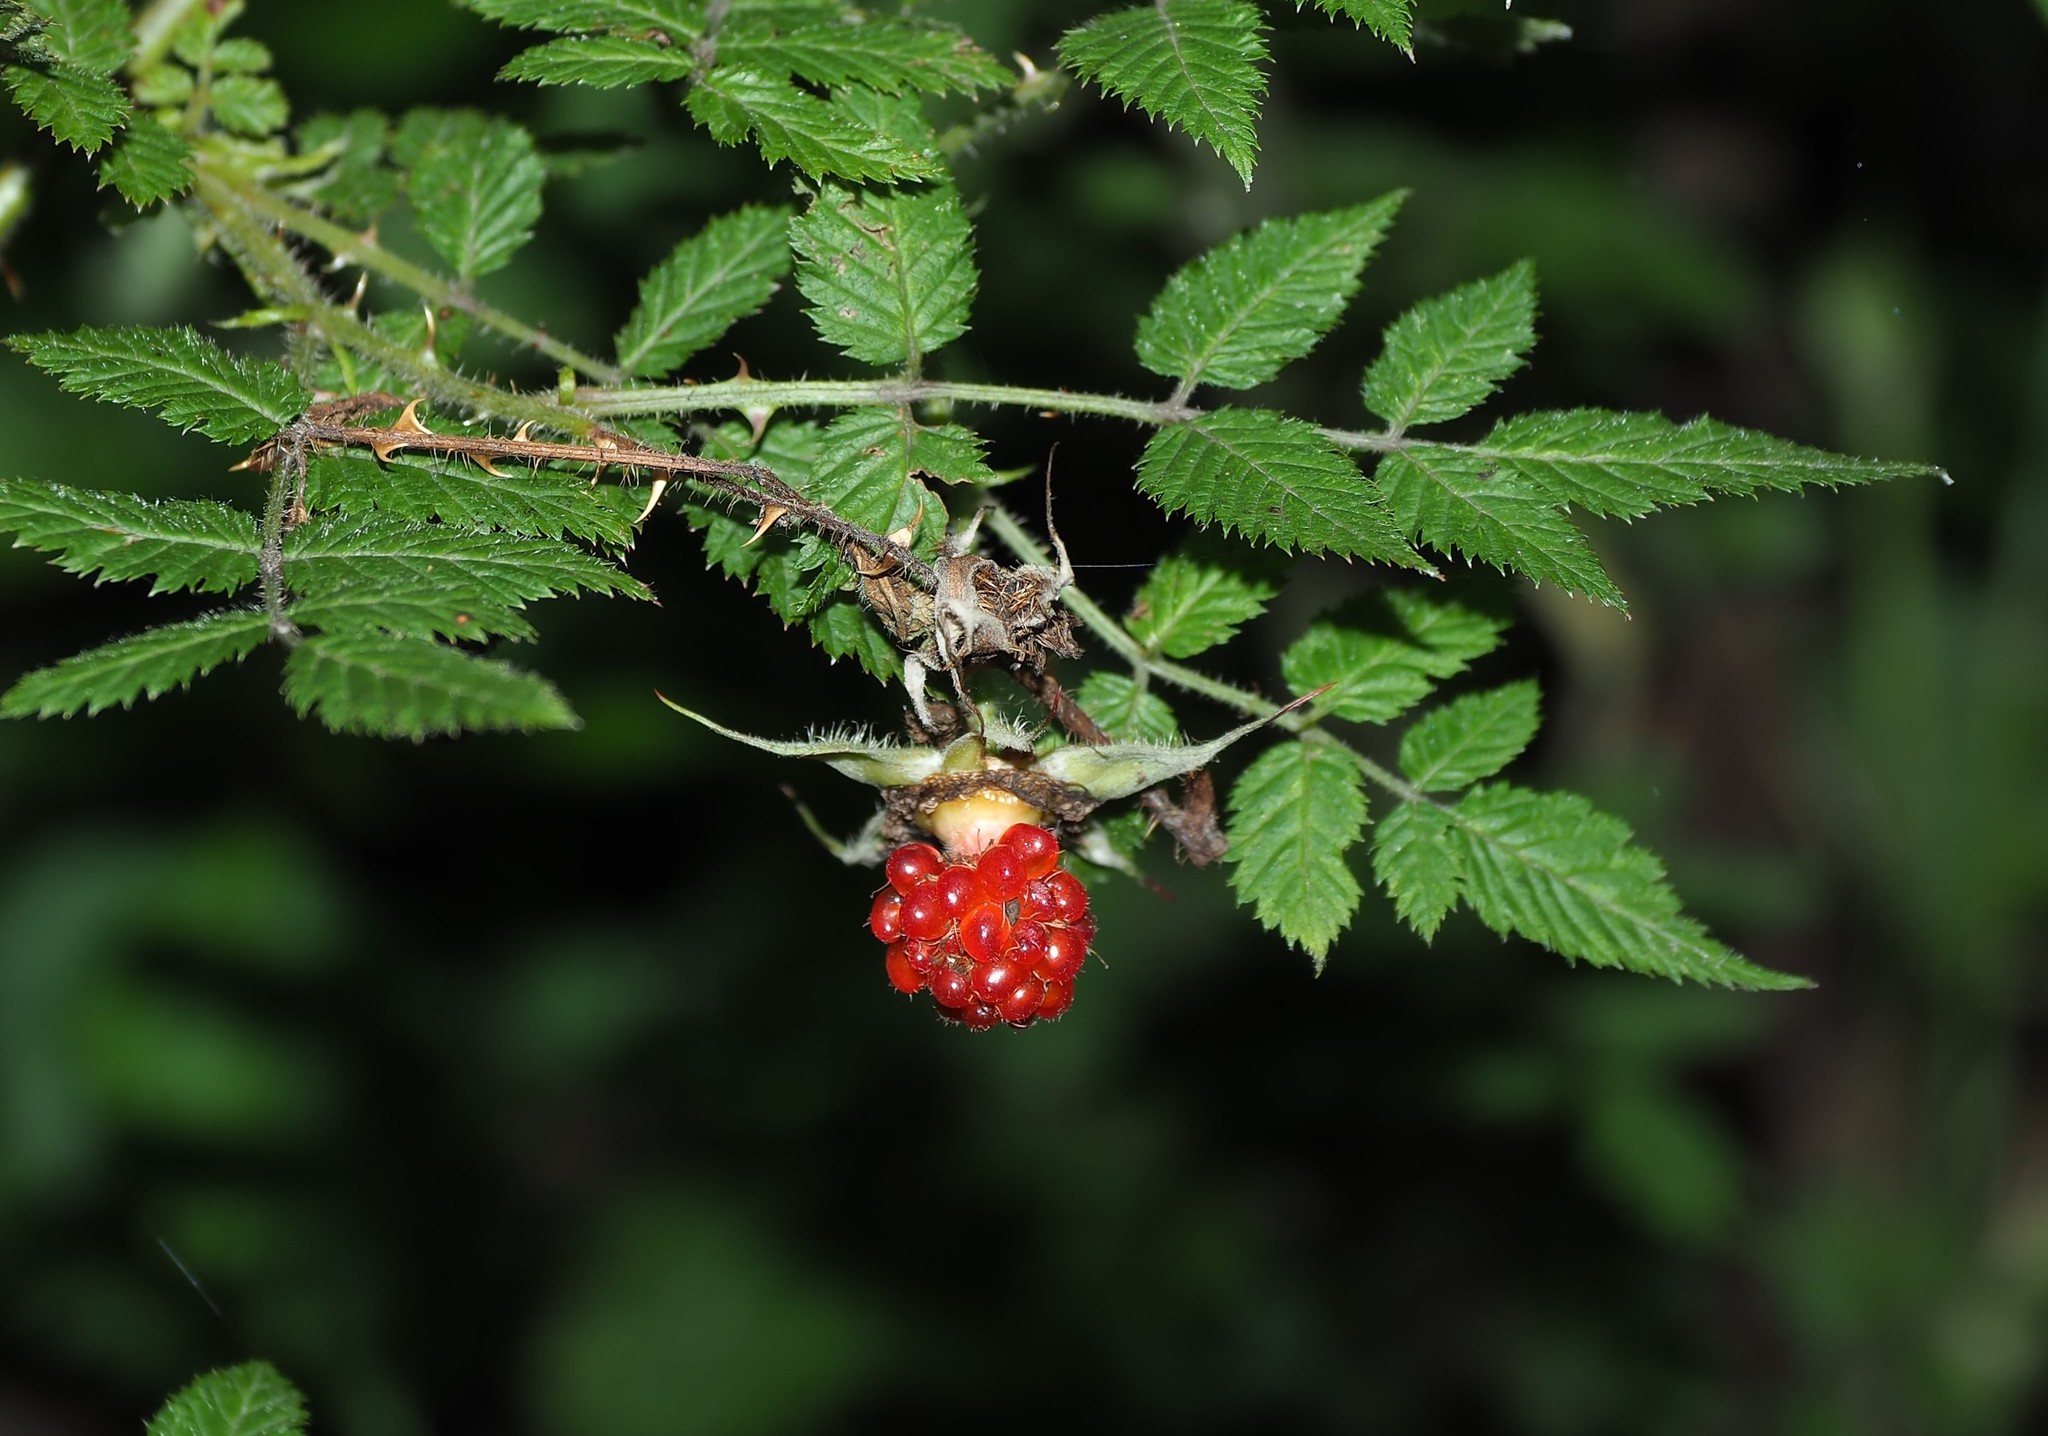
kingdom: Plantae
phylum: Tracheophyta
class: Magnoliopsida
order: Rosales
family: Rosaceae
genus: Rubus
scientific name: Rubus croceacanthus
